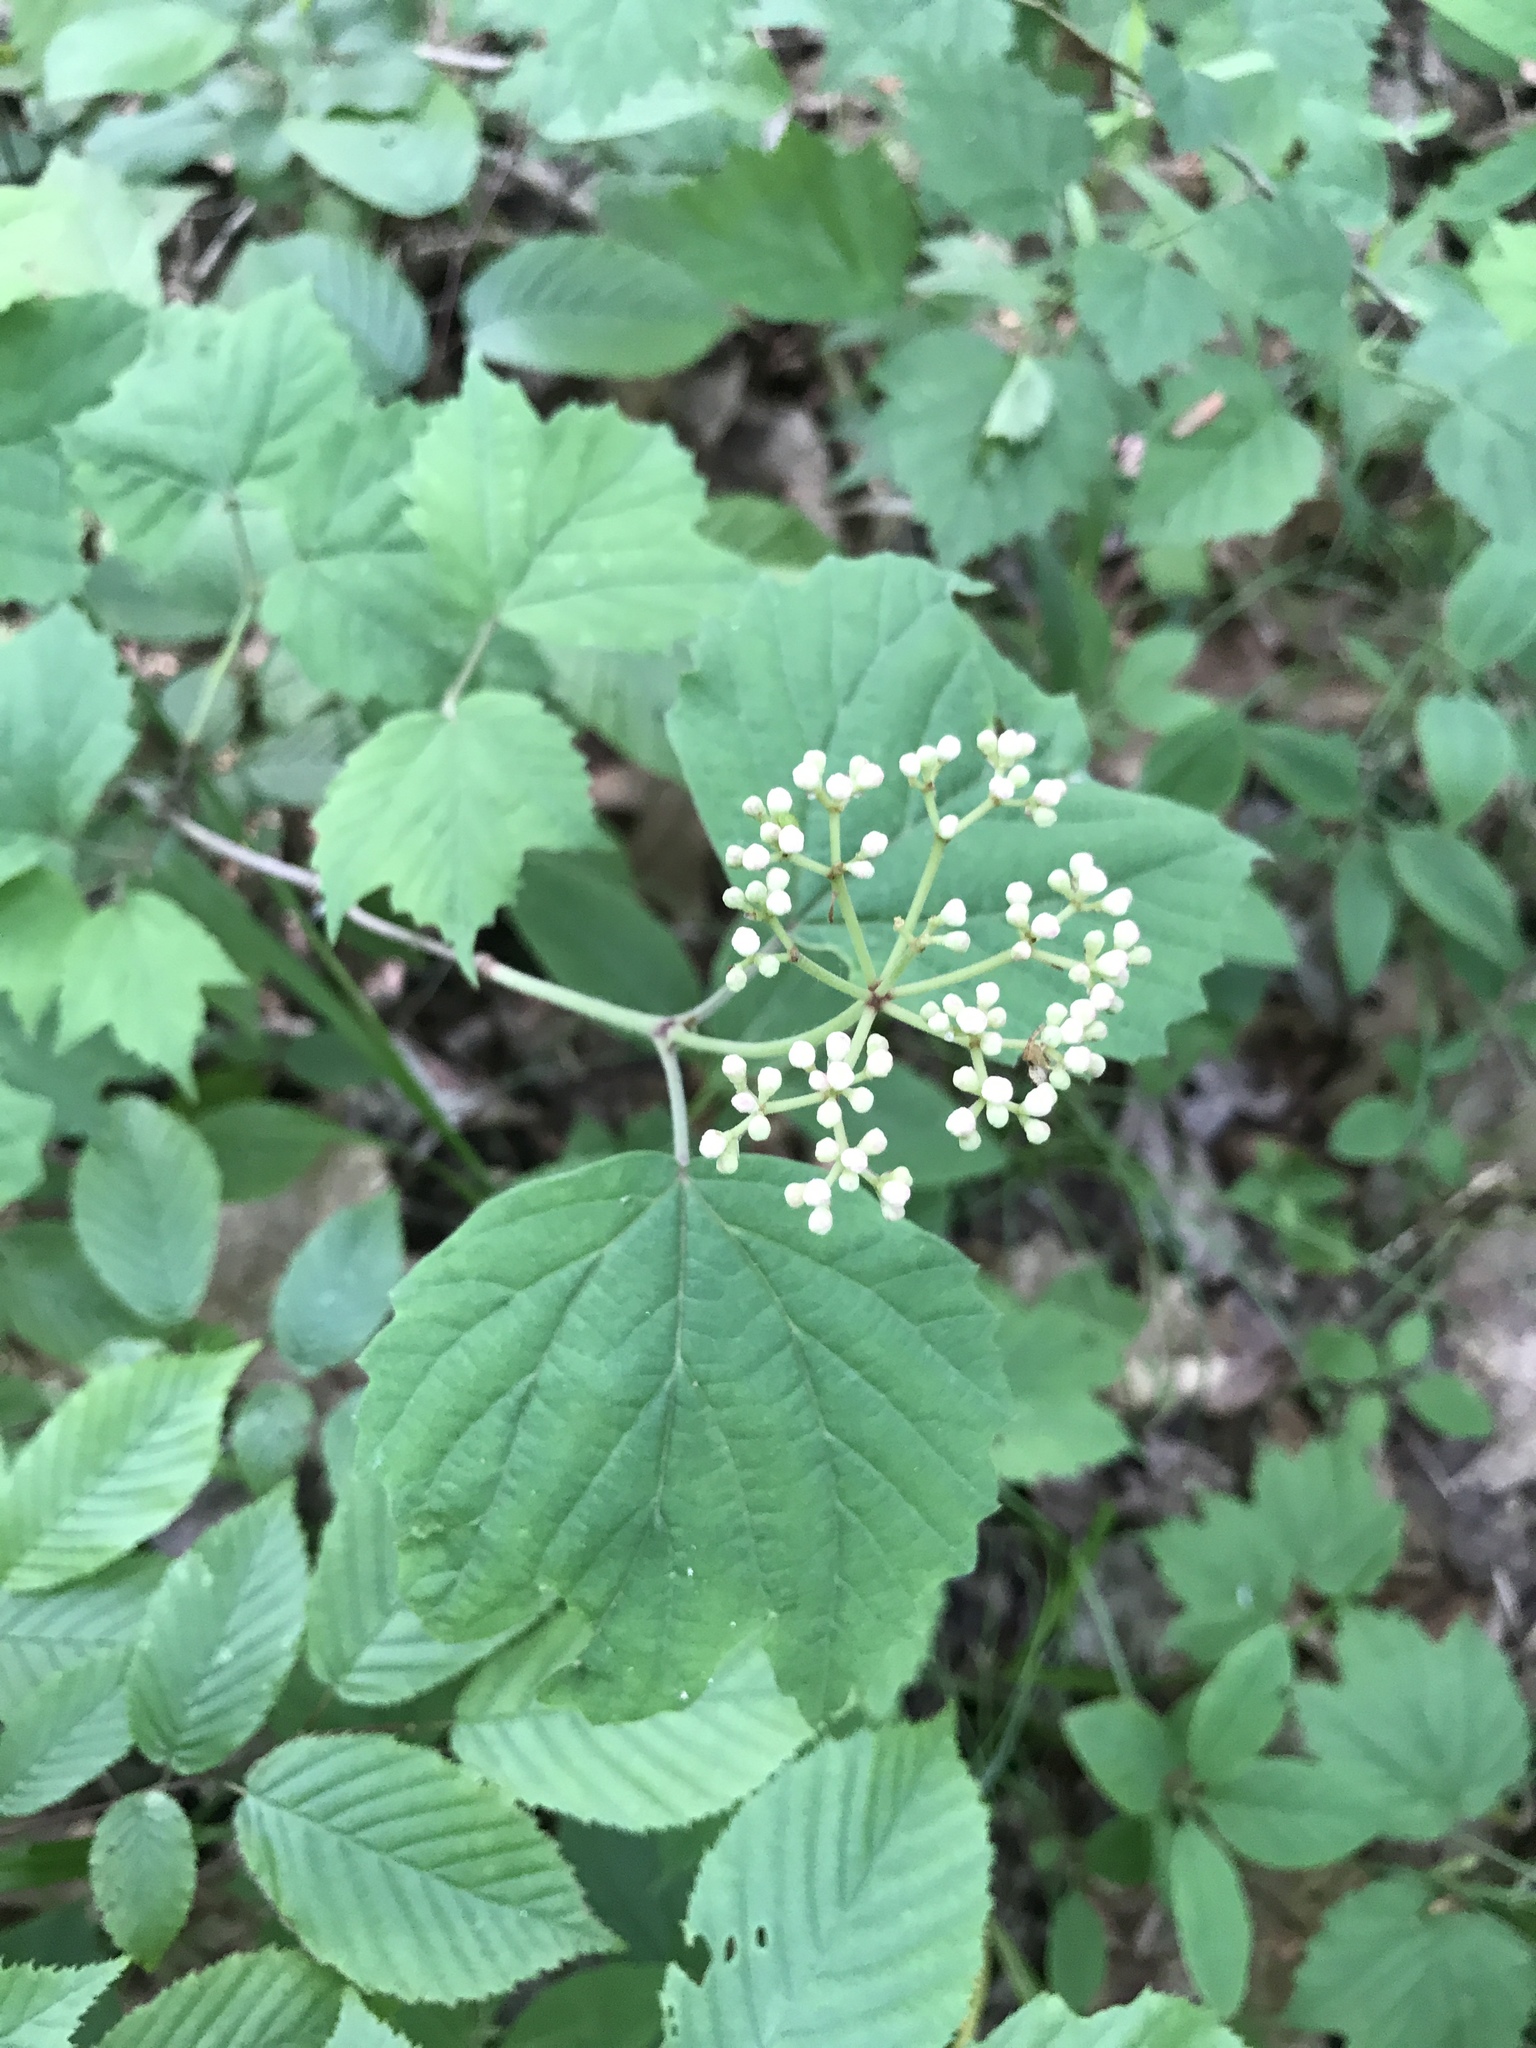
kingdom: Plantae
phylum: Tracheophyta
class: Magnoliopsida
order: Dipsacales
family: Viburnaceae
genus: Viburnum
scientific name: Viburnum acerifolium
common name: Dockmackie
